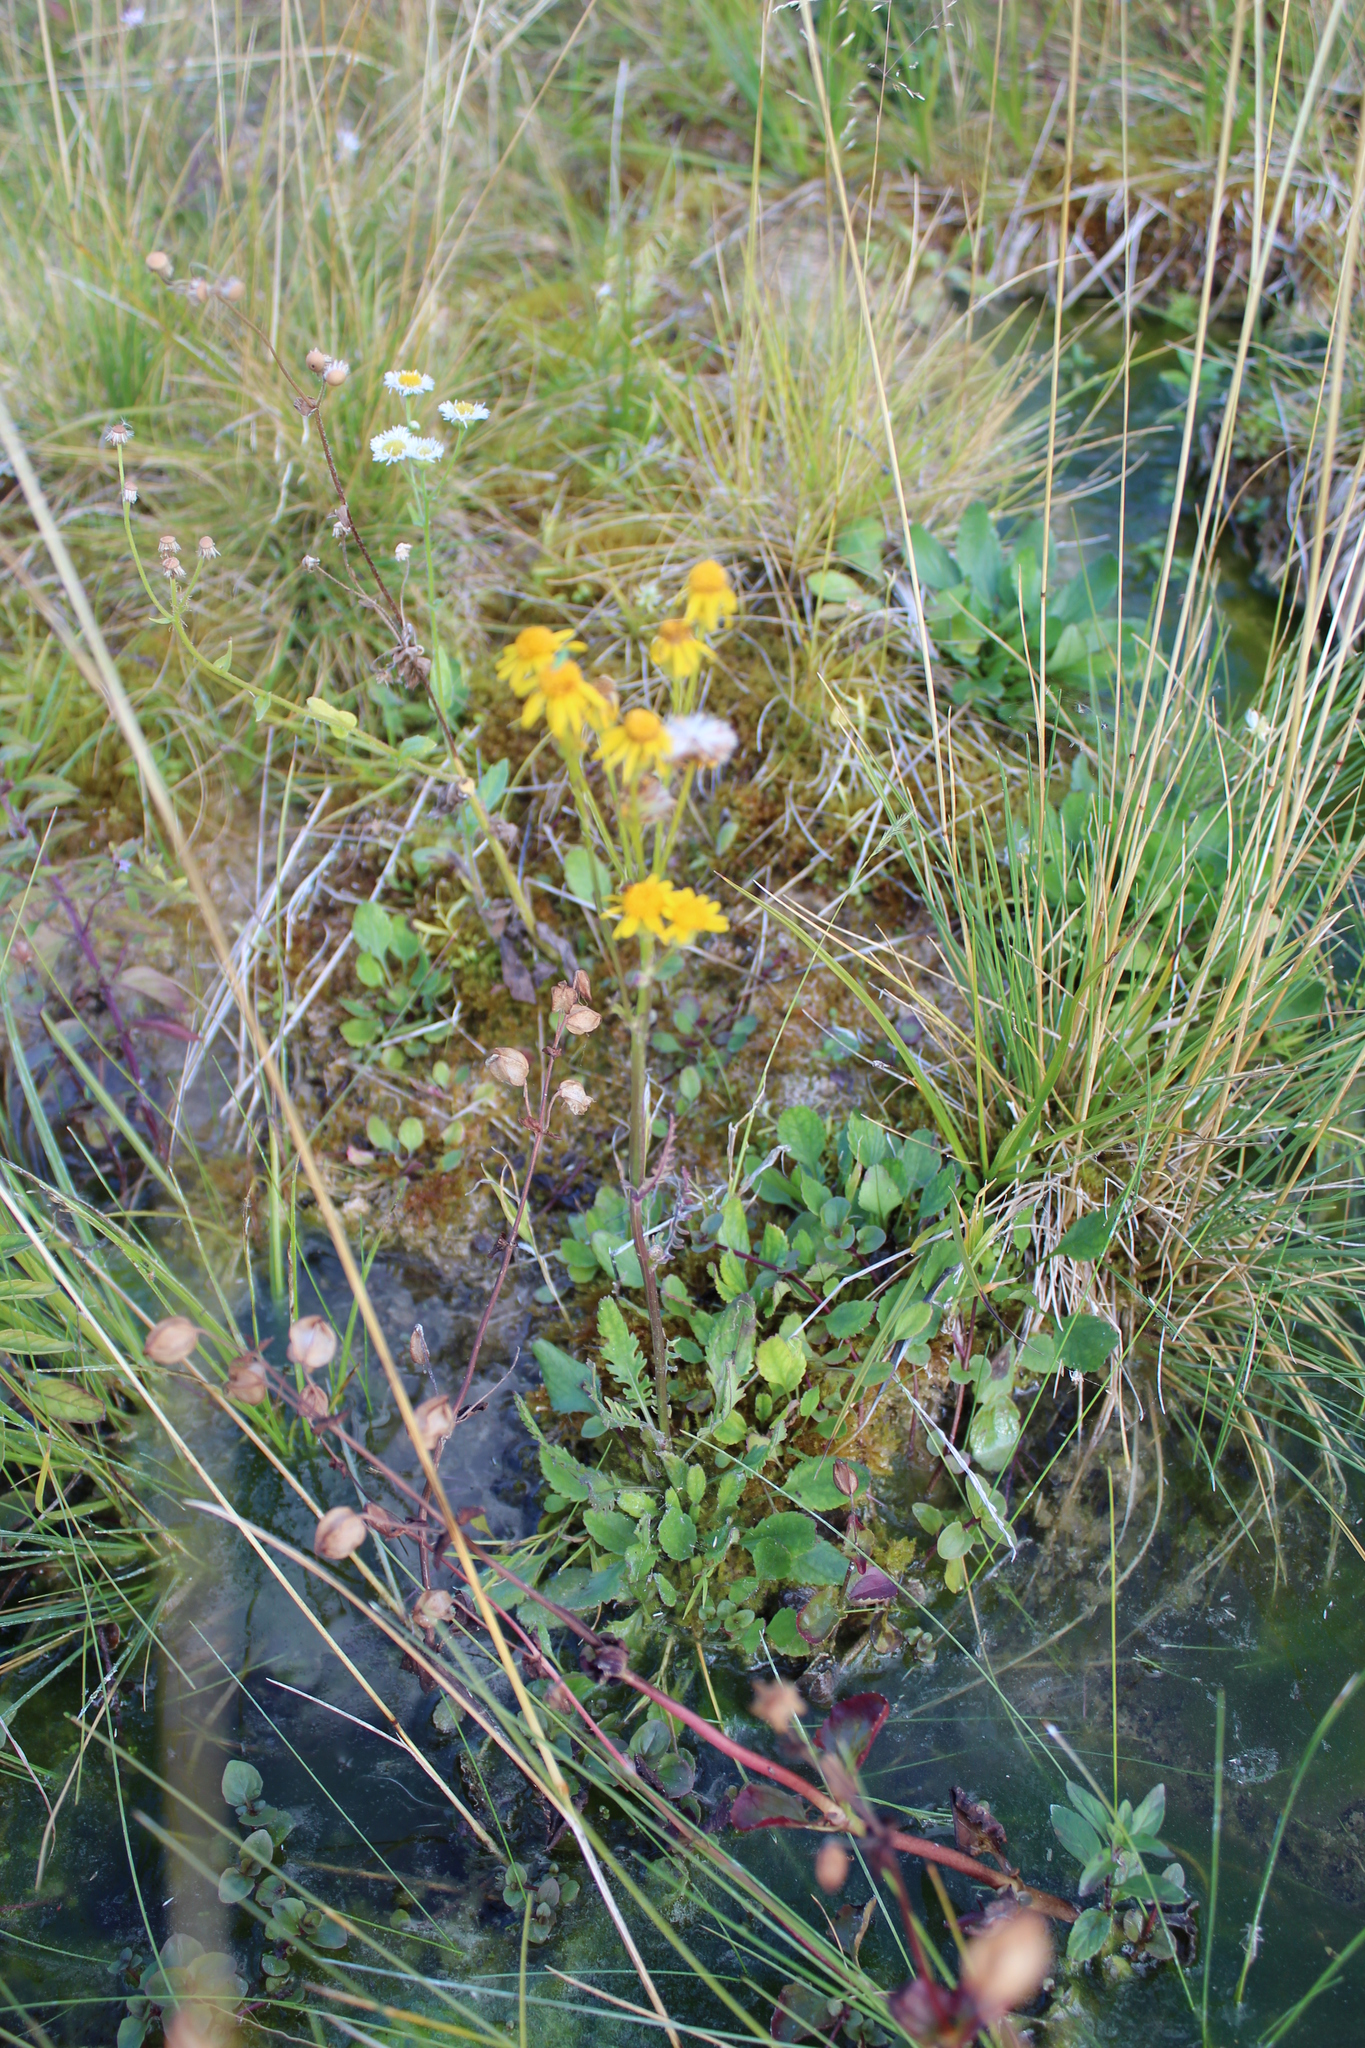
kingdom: Plantae
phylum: Tracheophyta
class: Magnoliopsida
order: Asterales
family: Asteraceae
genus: Packera
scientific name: Packera indecora
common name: Elegant groundsel
